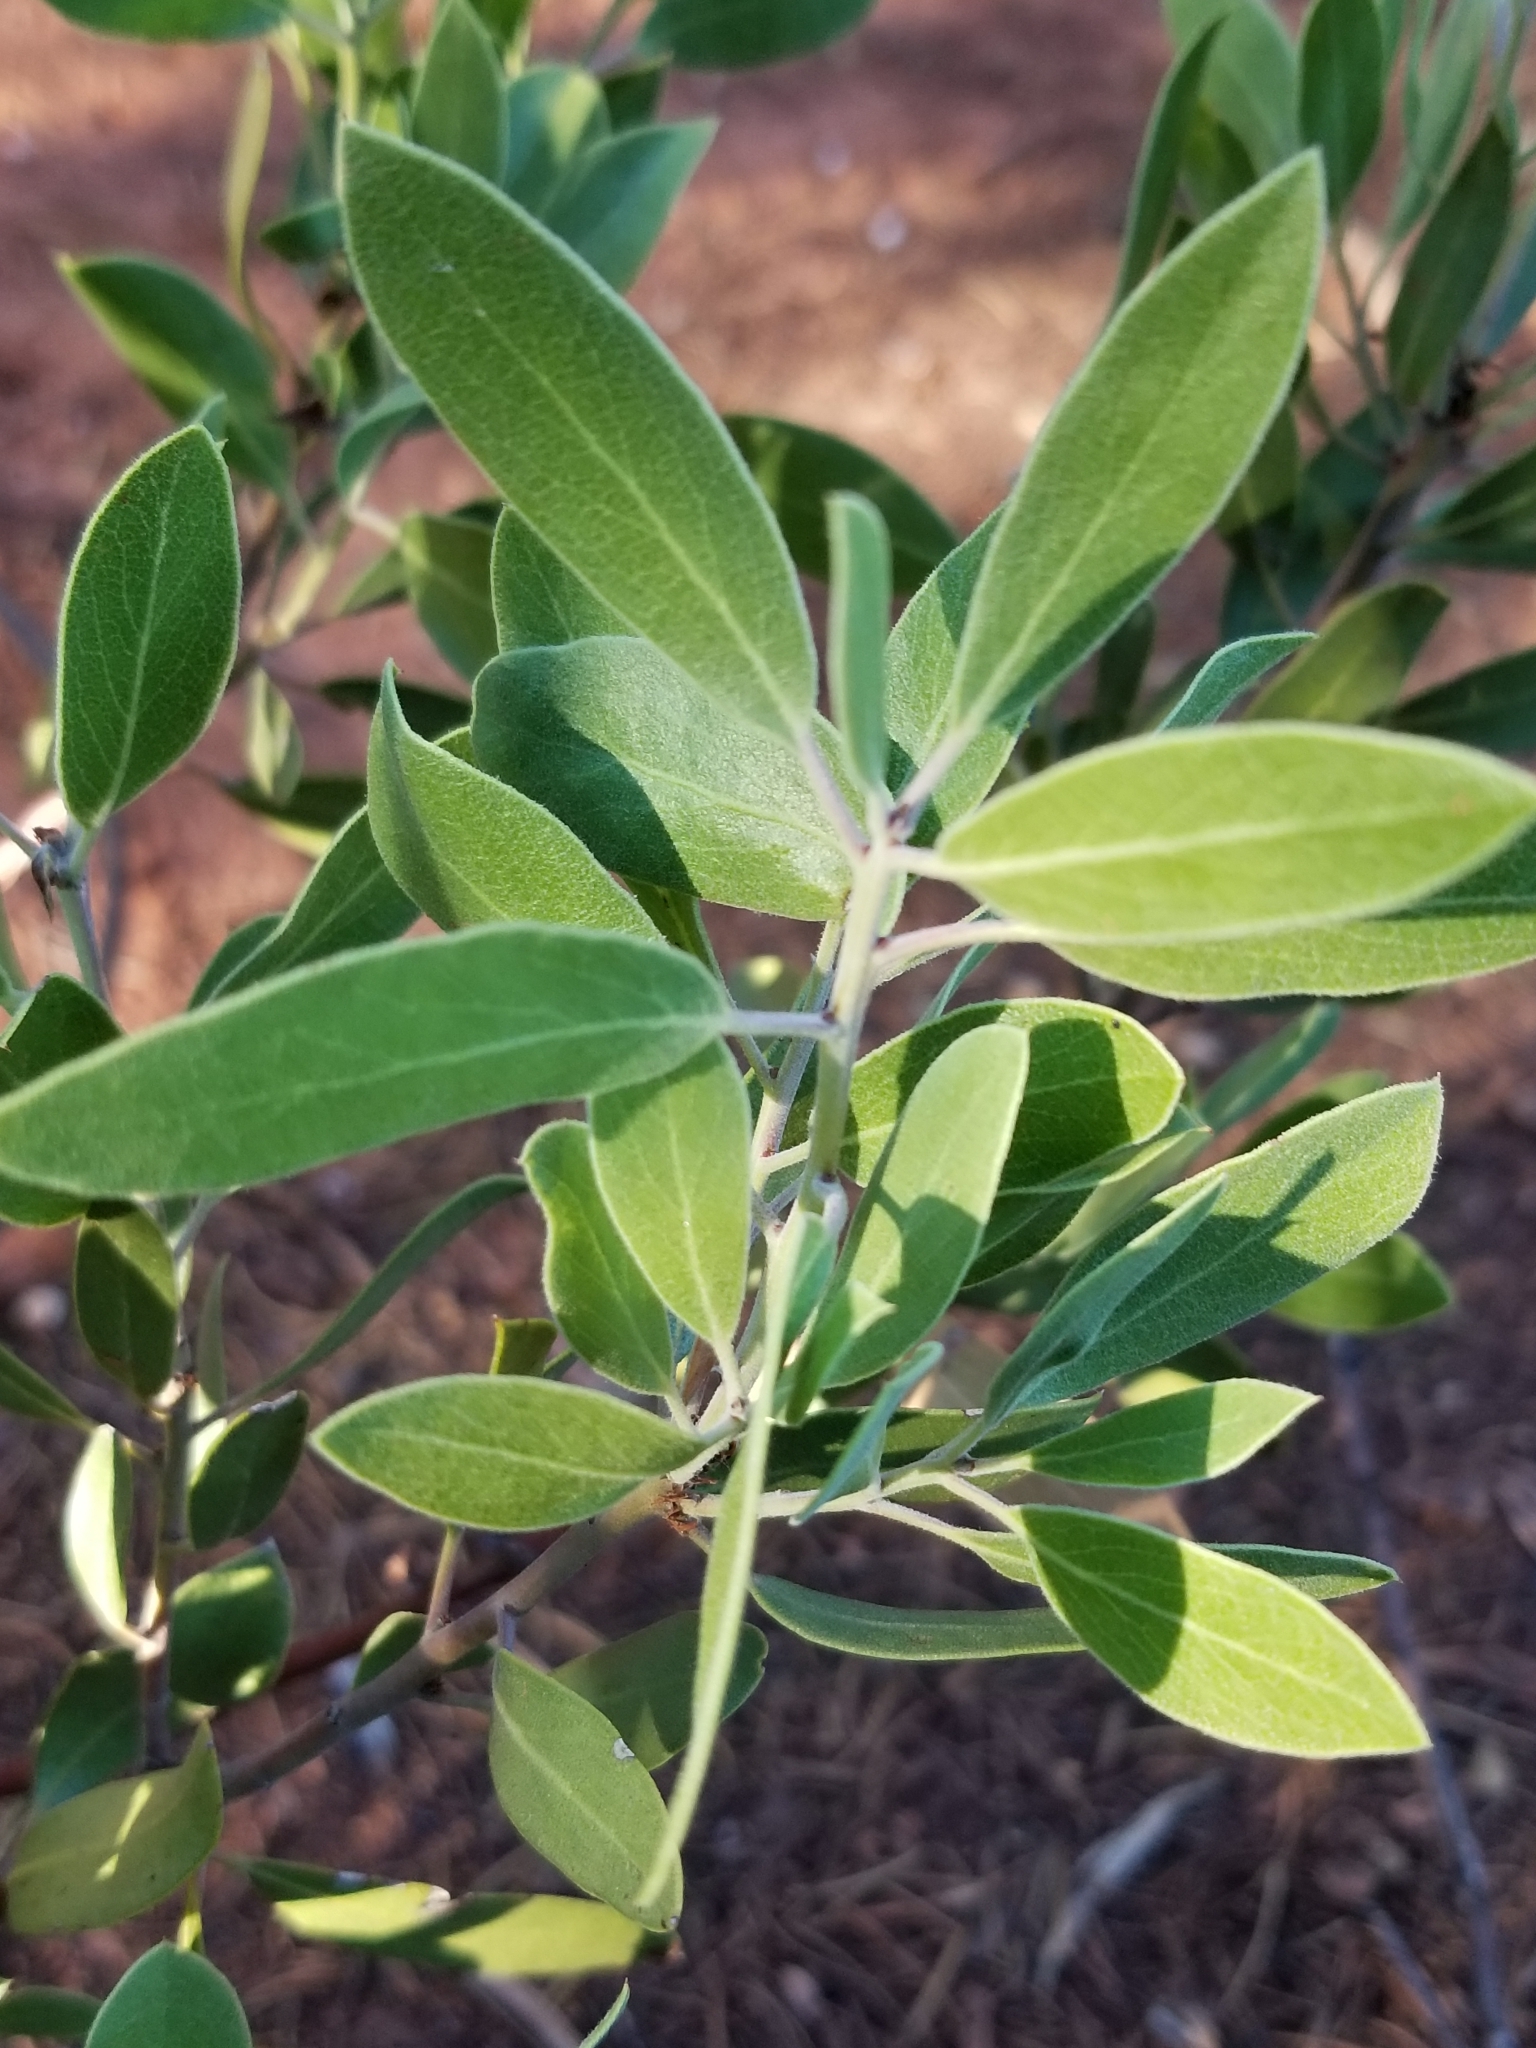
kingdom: Plantae
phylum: Tracheophyta
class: Magnoliopsida
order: Ericales
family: Ericaceae
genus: Arctostaphylos
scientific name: Arctostaphylos pungens
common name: Mexican manzanita
